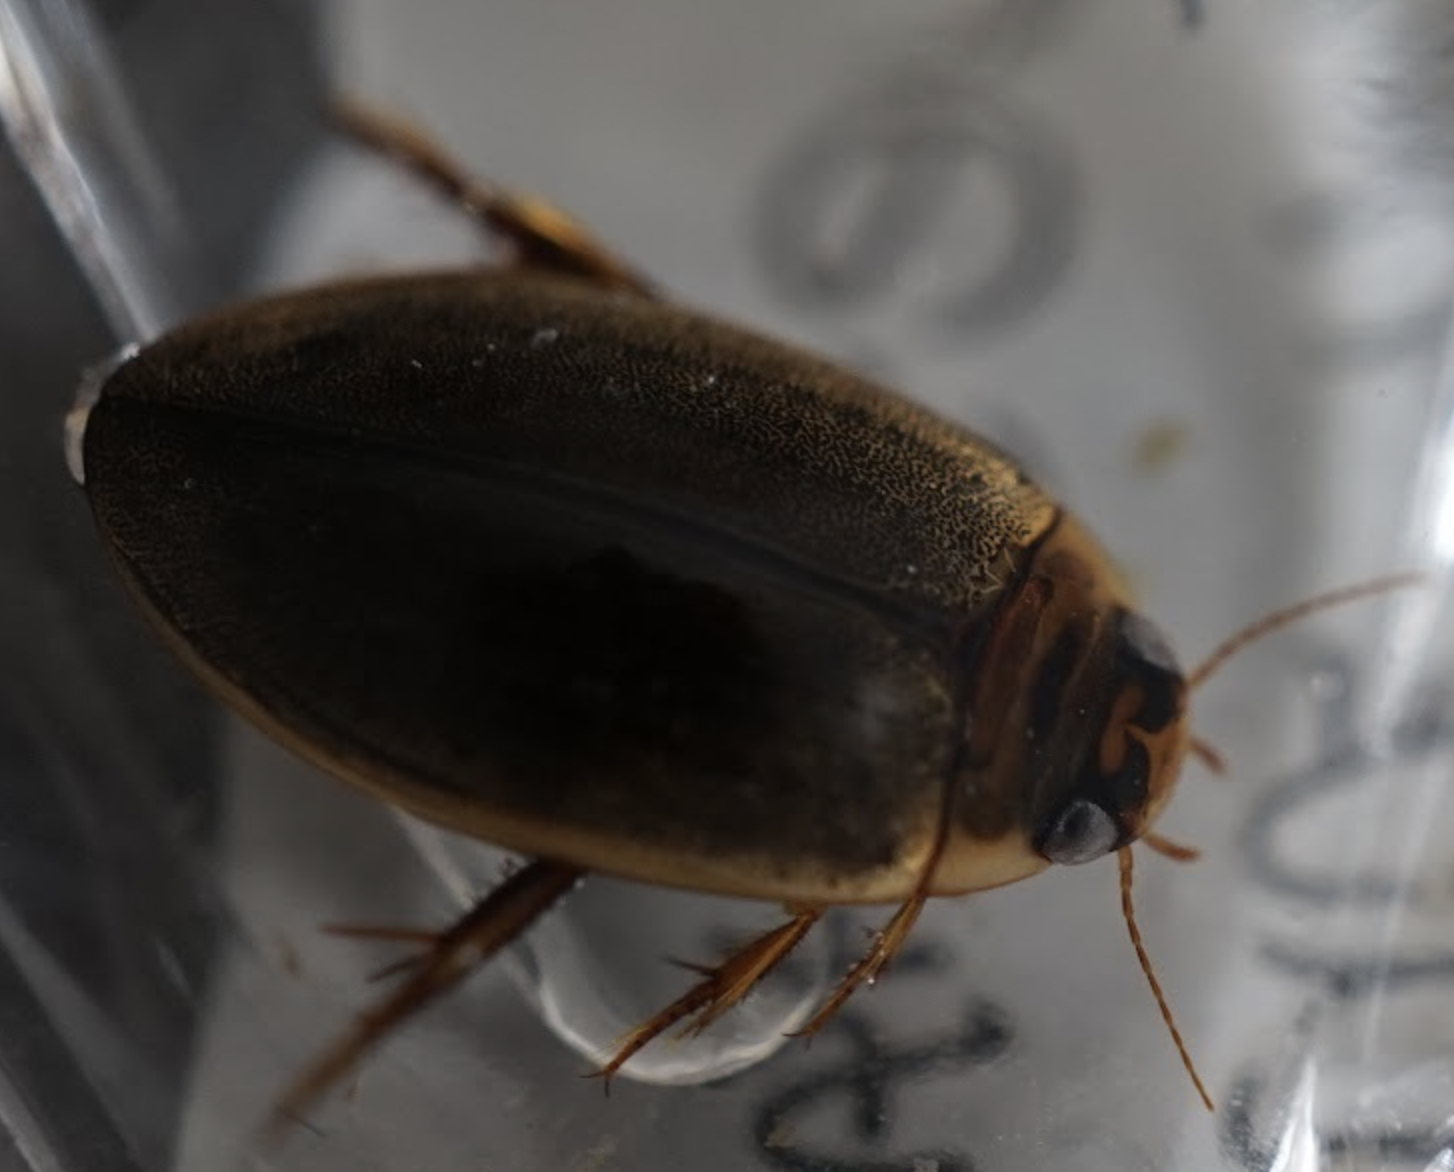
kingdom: Animalia
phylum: Arthropoda
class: Insecta
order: Coleoptera
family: Dytiscidae
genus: Rhantus
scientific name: Rhantus suturalis
